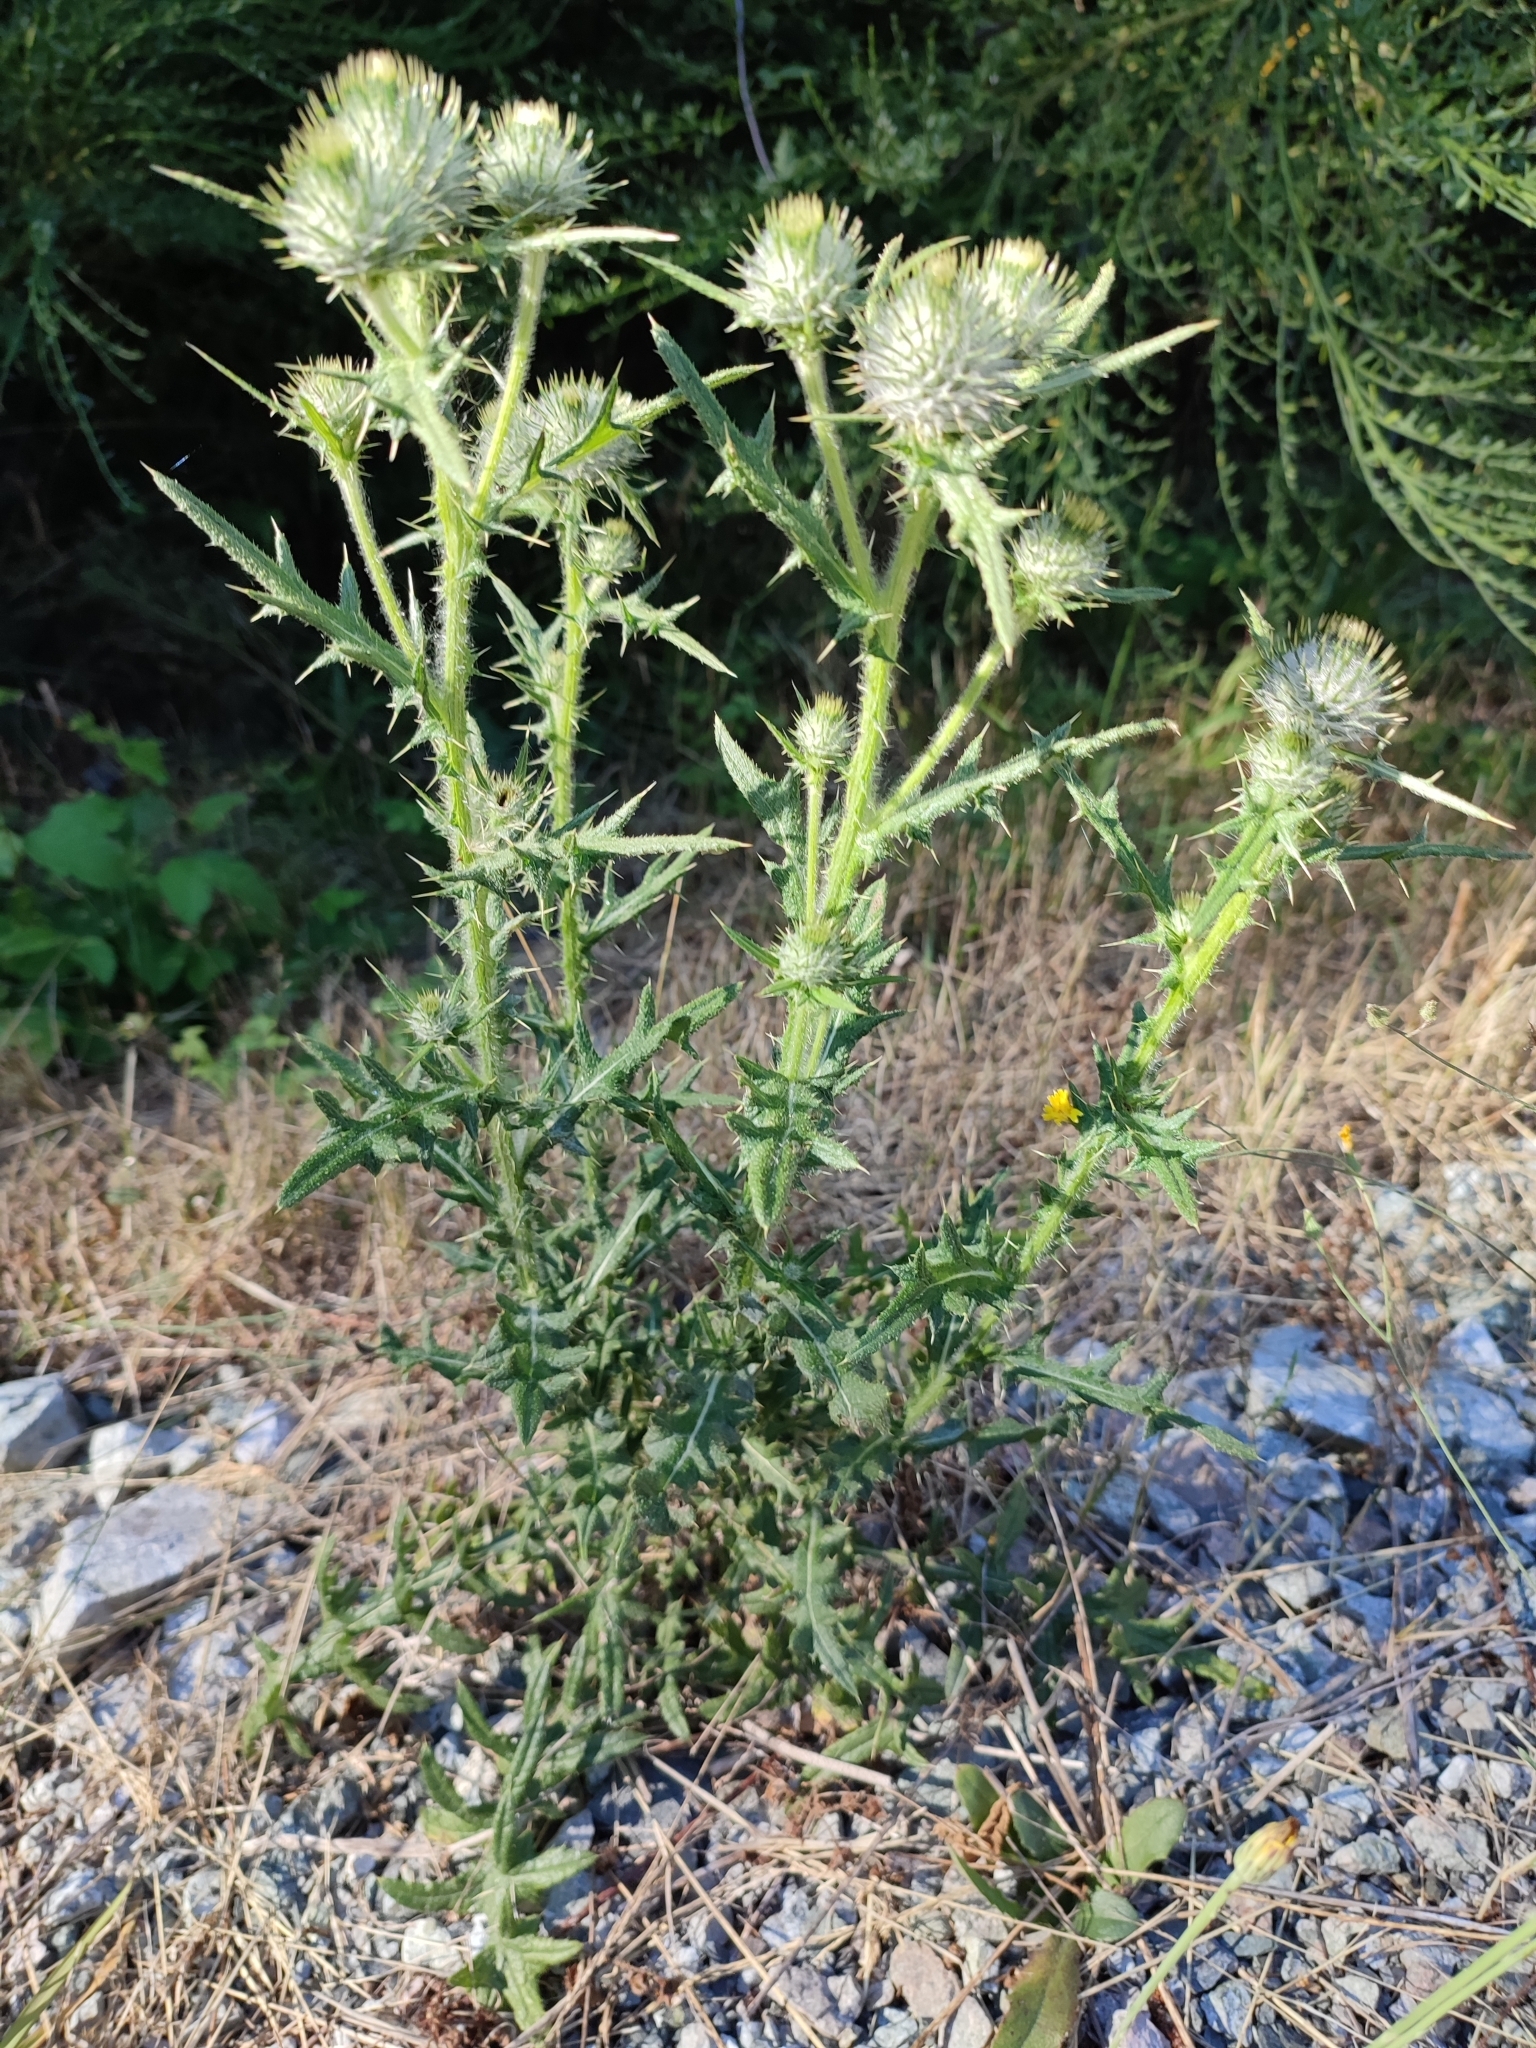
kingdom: Plantae
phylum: Tracheophyta
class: Magnoliopsida
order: Asterales
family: Asteraceae
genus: Cirsium
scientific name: Cirsium vulgare
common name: Bull thistle
